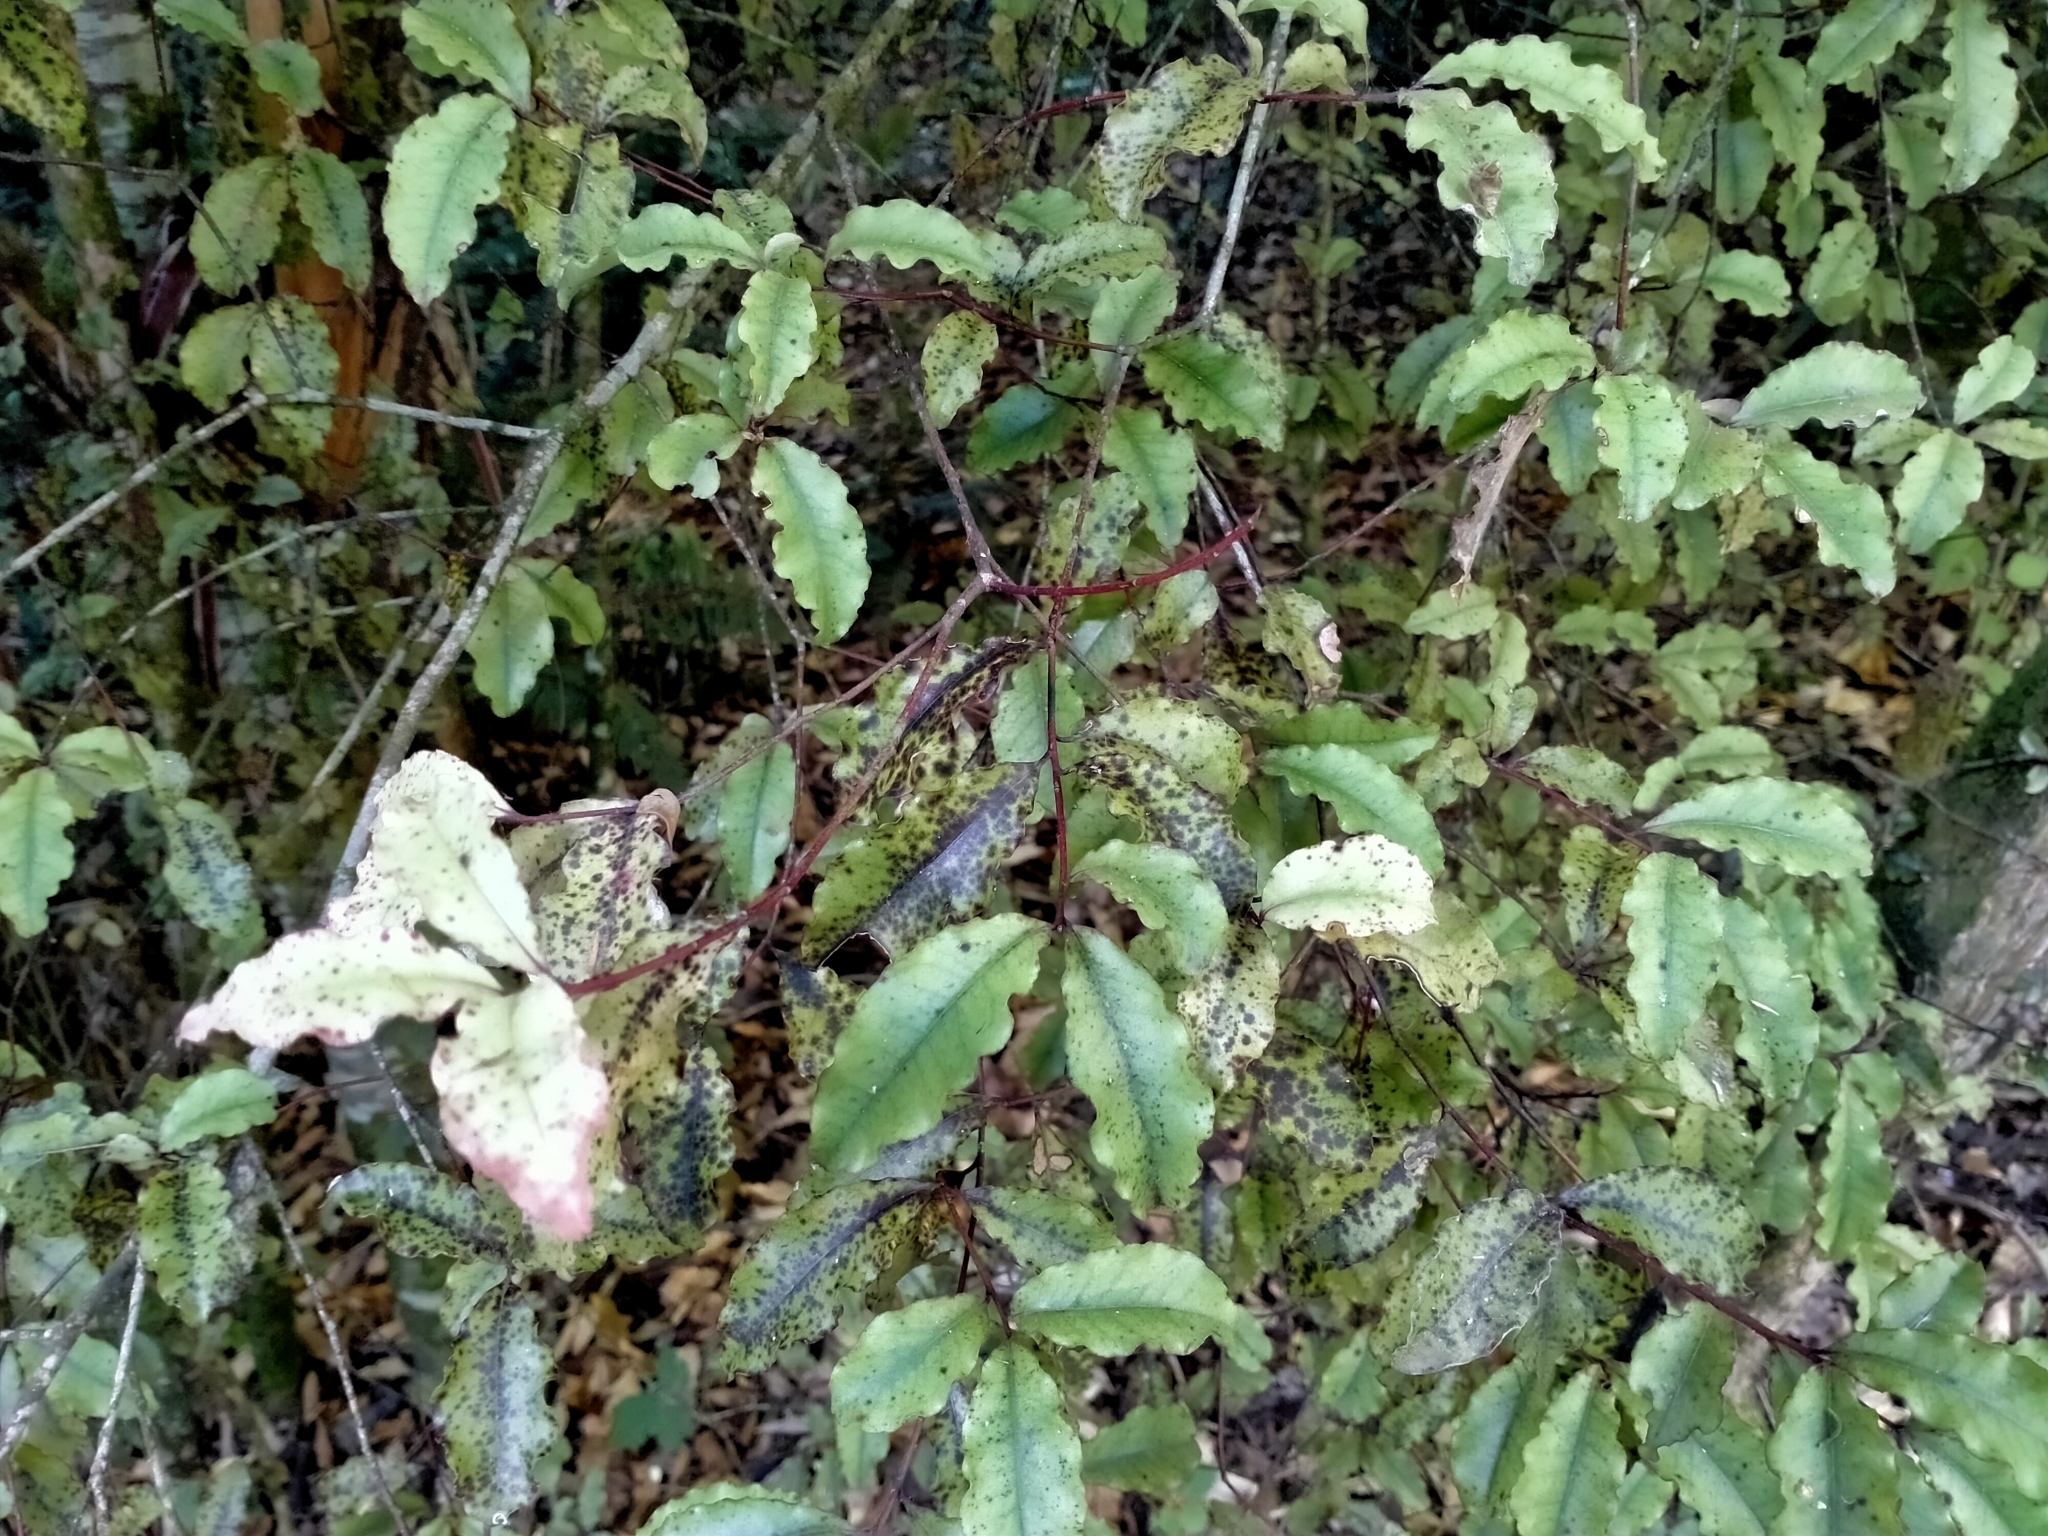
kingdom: Plantae
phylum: Tracheophyta
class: Magnoliopsida
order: Ericales
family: Primulaceae
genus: Myrsine
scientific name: Myrsine australis
